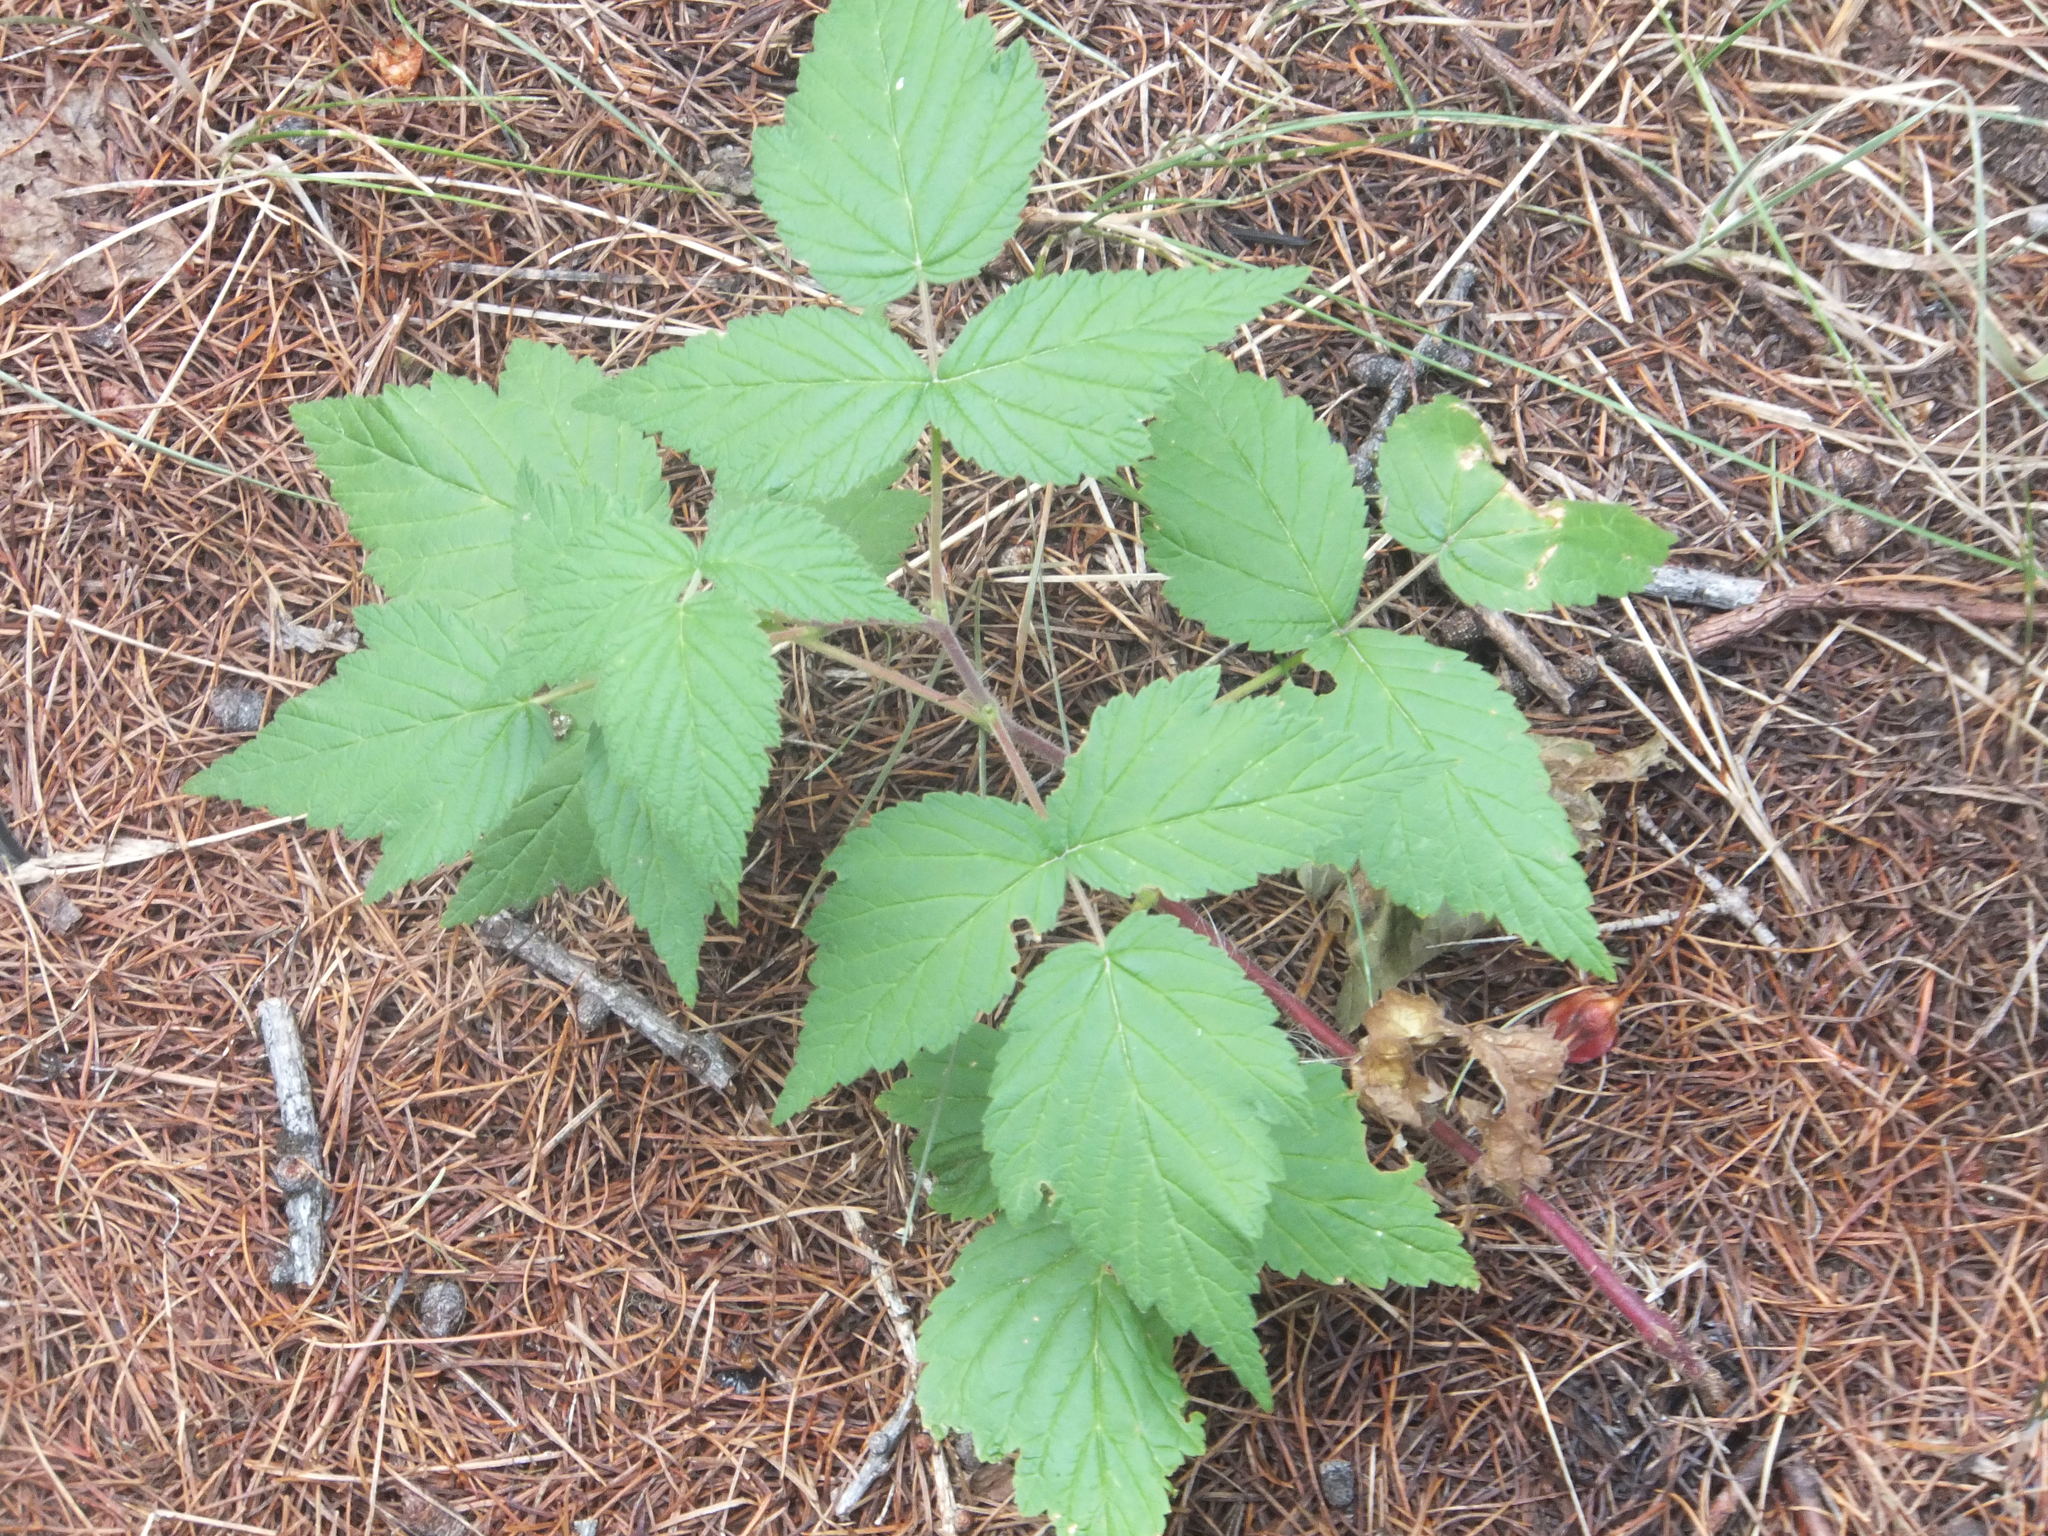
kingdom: Plantae
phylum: Tracheophyta
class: Magnoliopsida
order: Rosales
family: Rosaceae
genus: Rubus
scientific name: Rubus idaeus
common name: Raspberry
